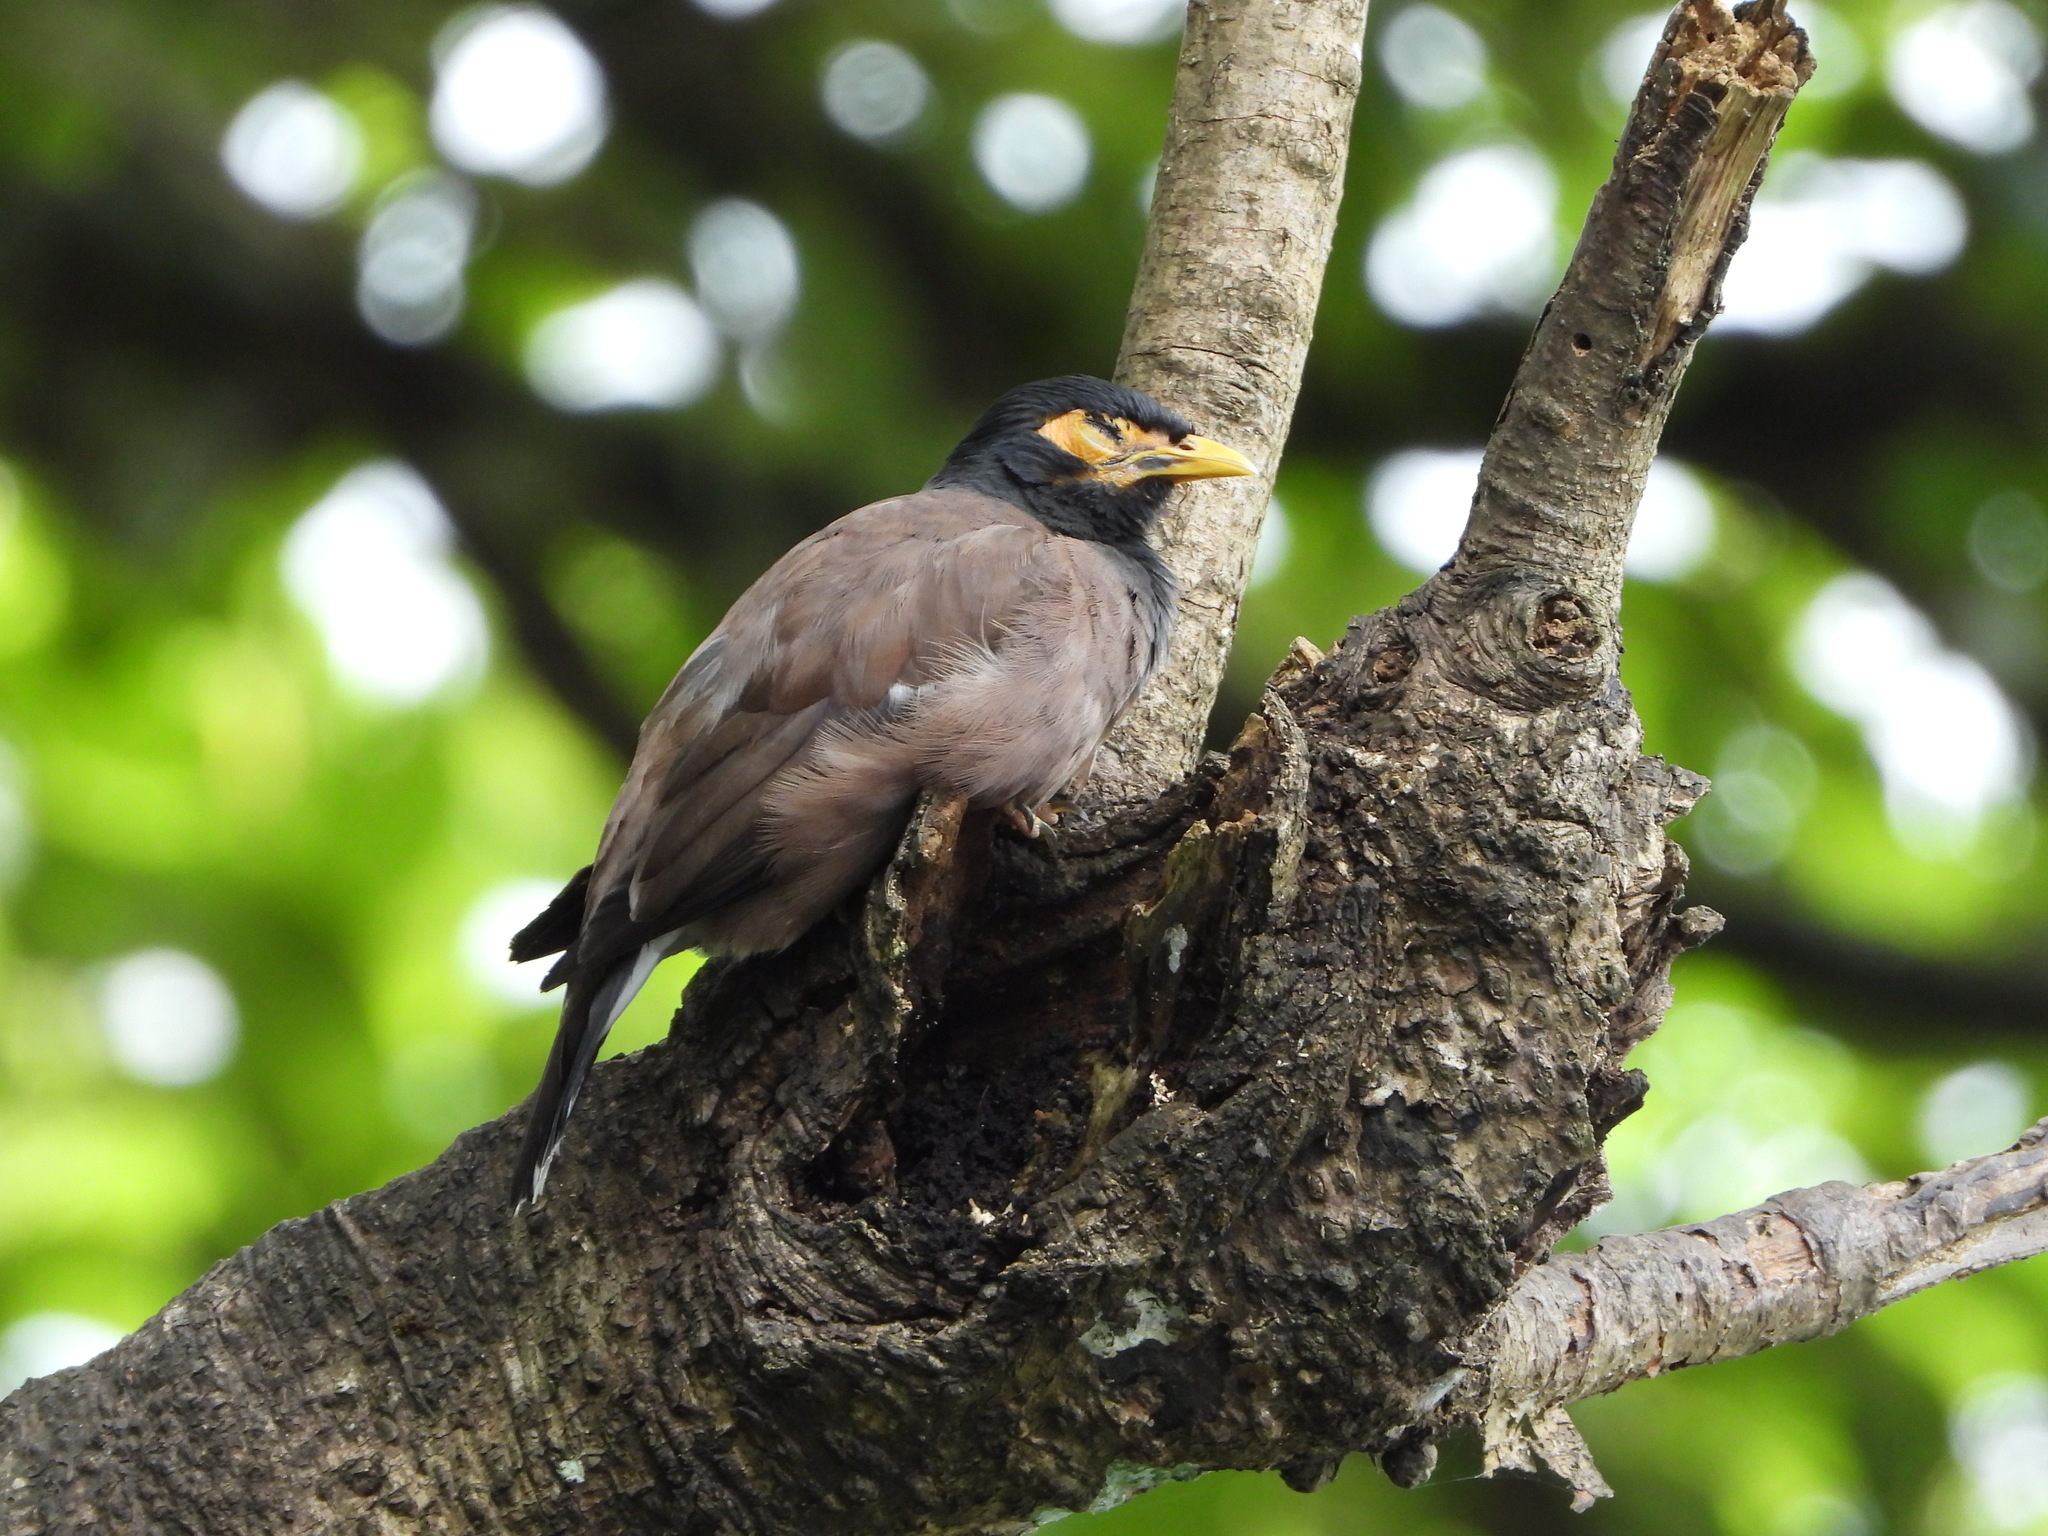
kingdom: Animalia
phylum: Chordata
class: Aves
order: Passeriformes
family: Sturnidae
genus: Acridotheres
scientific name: Acridotheres tristis
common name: Common myna
